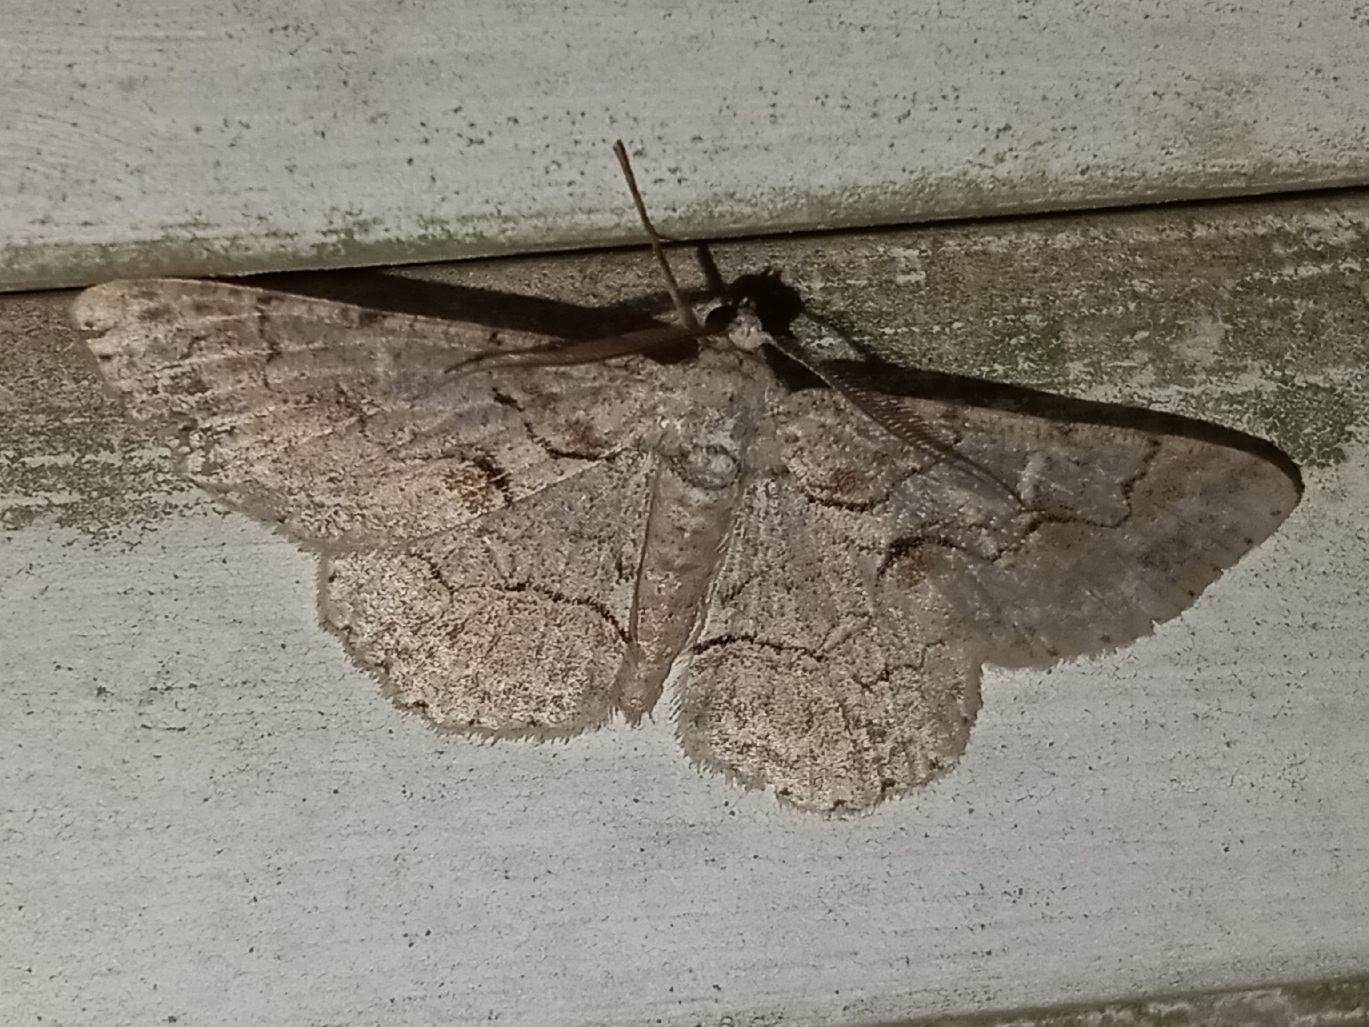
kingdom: Animalia
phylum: Arthropoda
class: Insecta
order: Lepidoptera
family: Geometridae
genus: Iridopsis
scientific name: Iridopsis defectaria
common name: Brown-shaded gray
